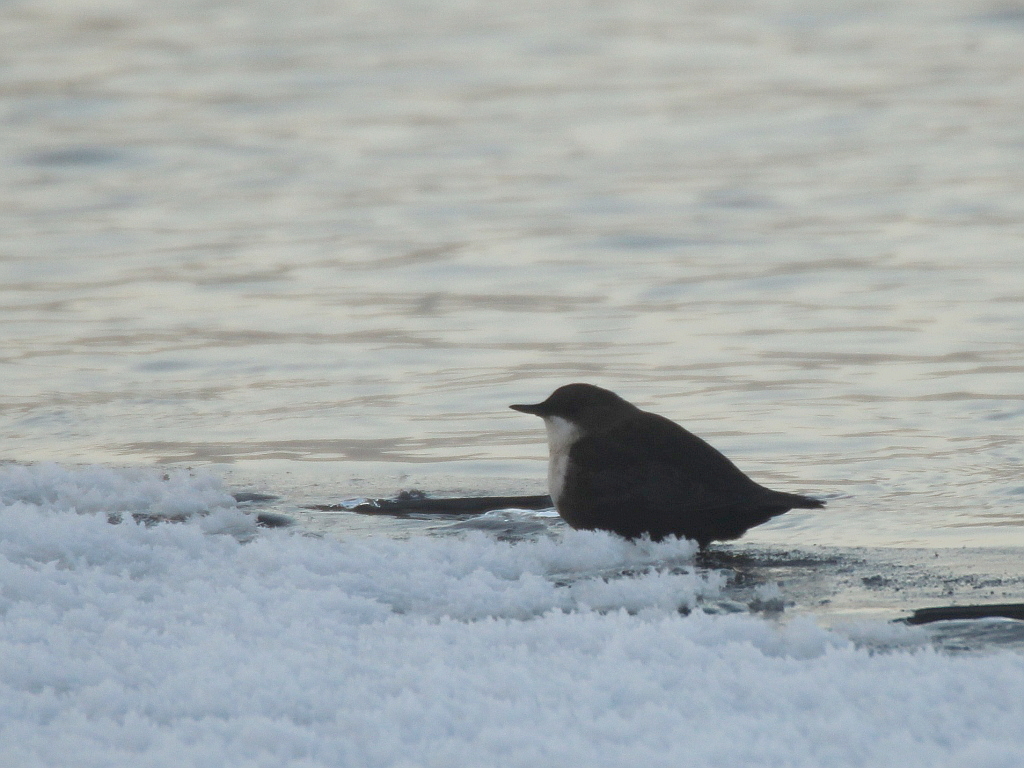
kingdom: Animalia
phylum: Chordata
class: Aves
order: Passeriformes
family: Cinclidae
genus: Cinclus
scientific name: Cinclus cinclus
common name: White-throated dipper
